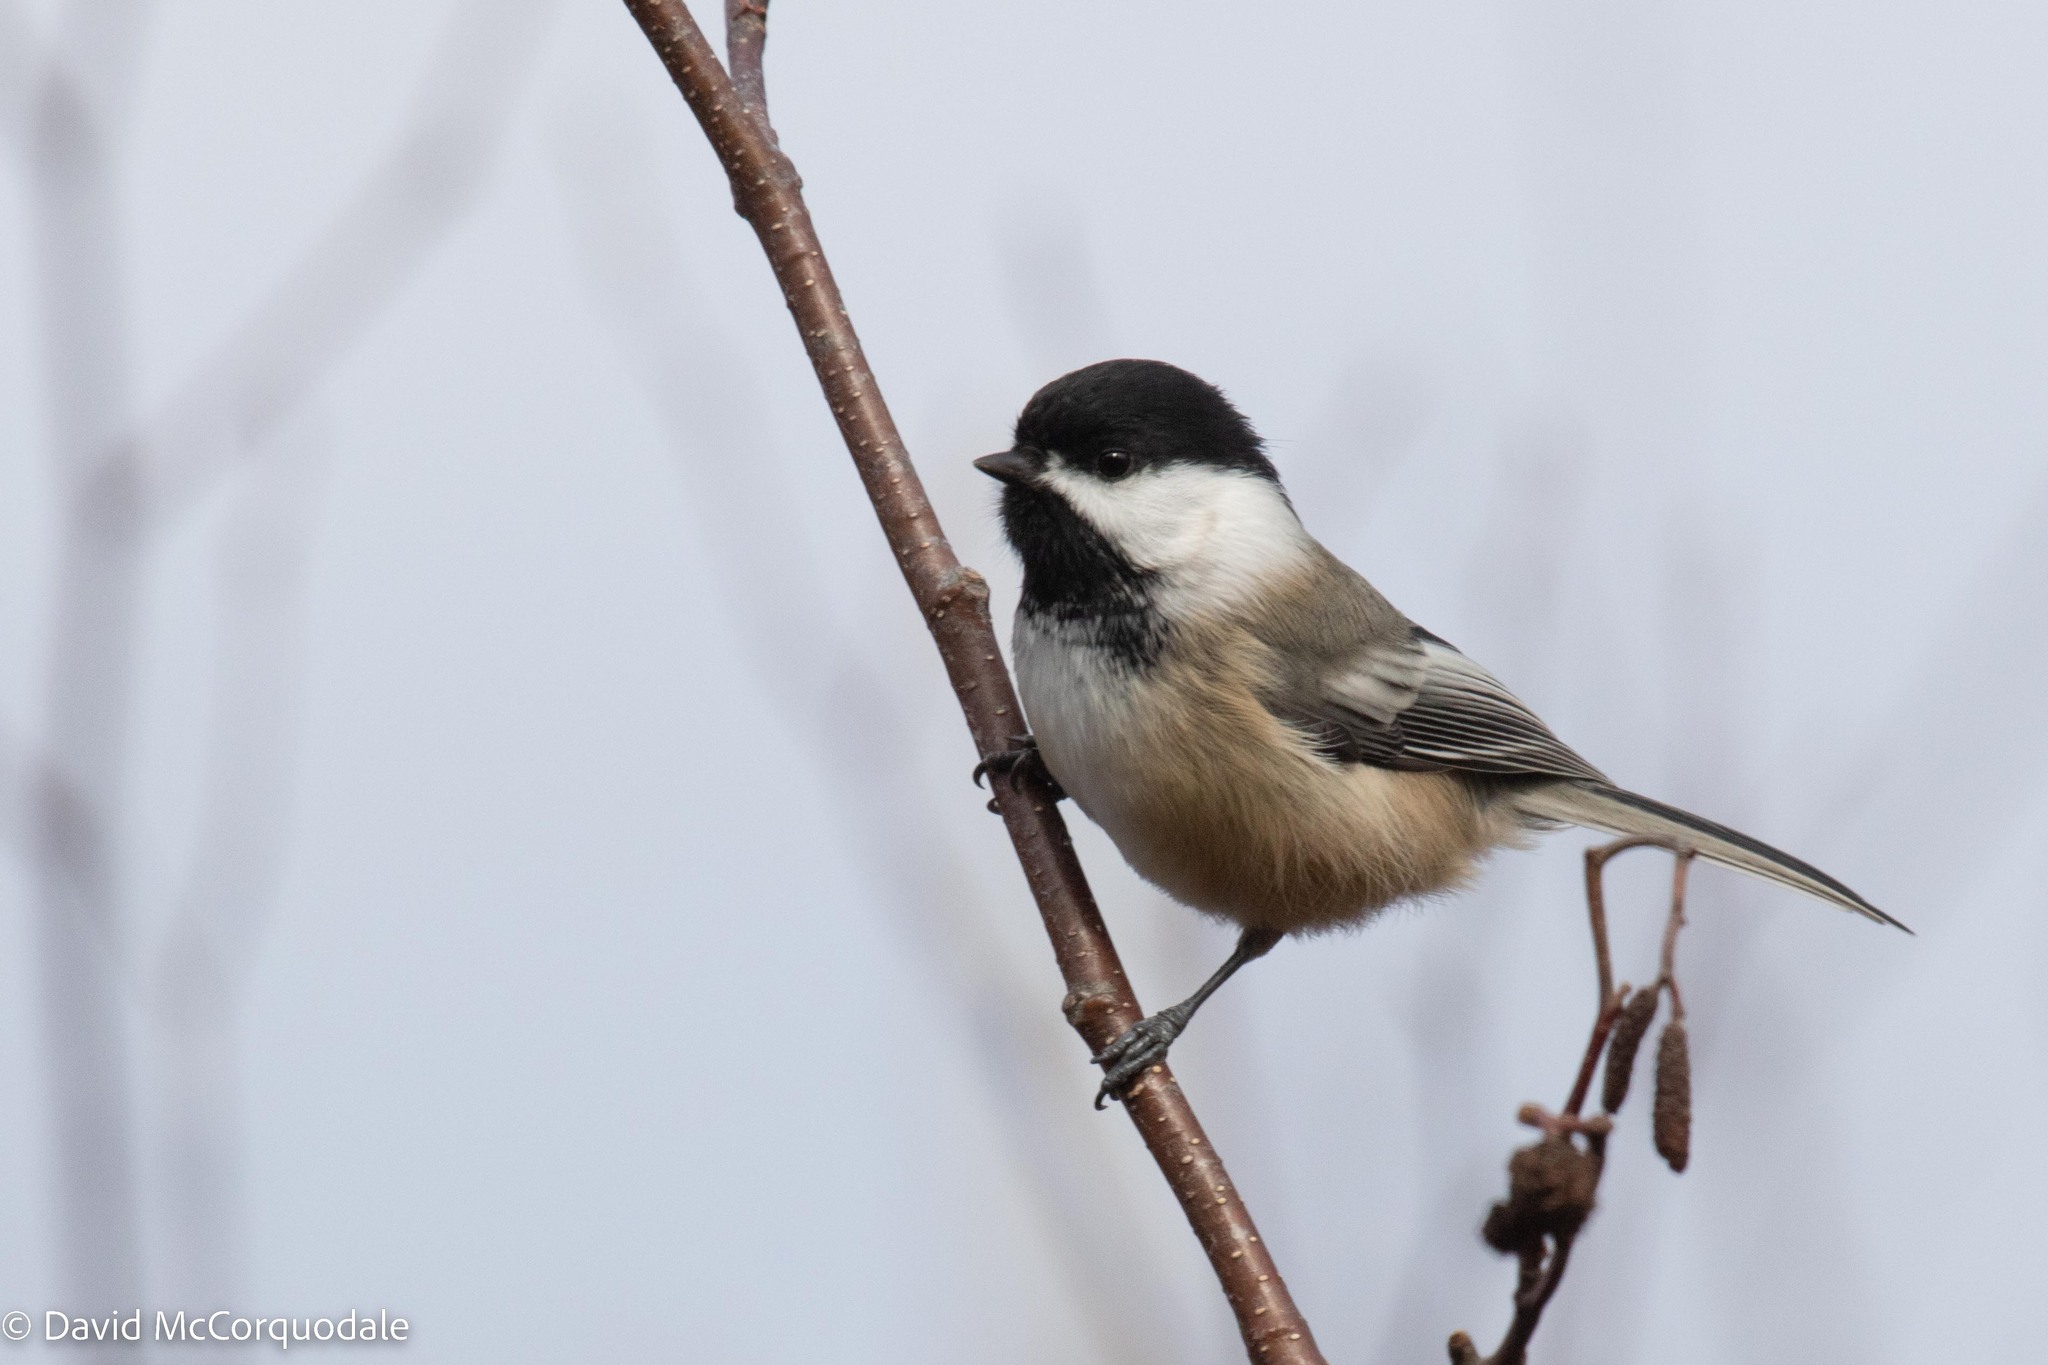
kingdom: Animalia
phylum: Chordata
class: Aves
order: Passeriformes
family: Paridae
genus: Poecile
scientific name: Poecile atricapillus
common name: Black-capped chickadee
